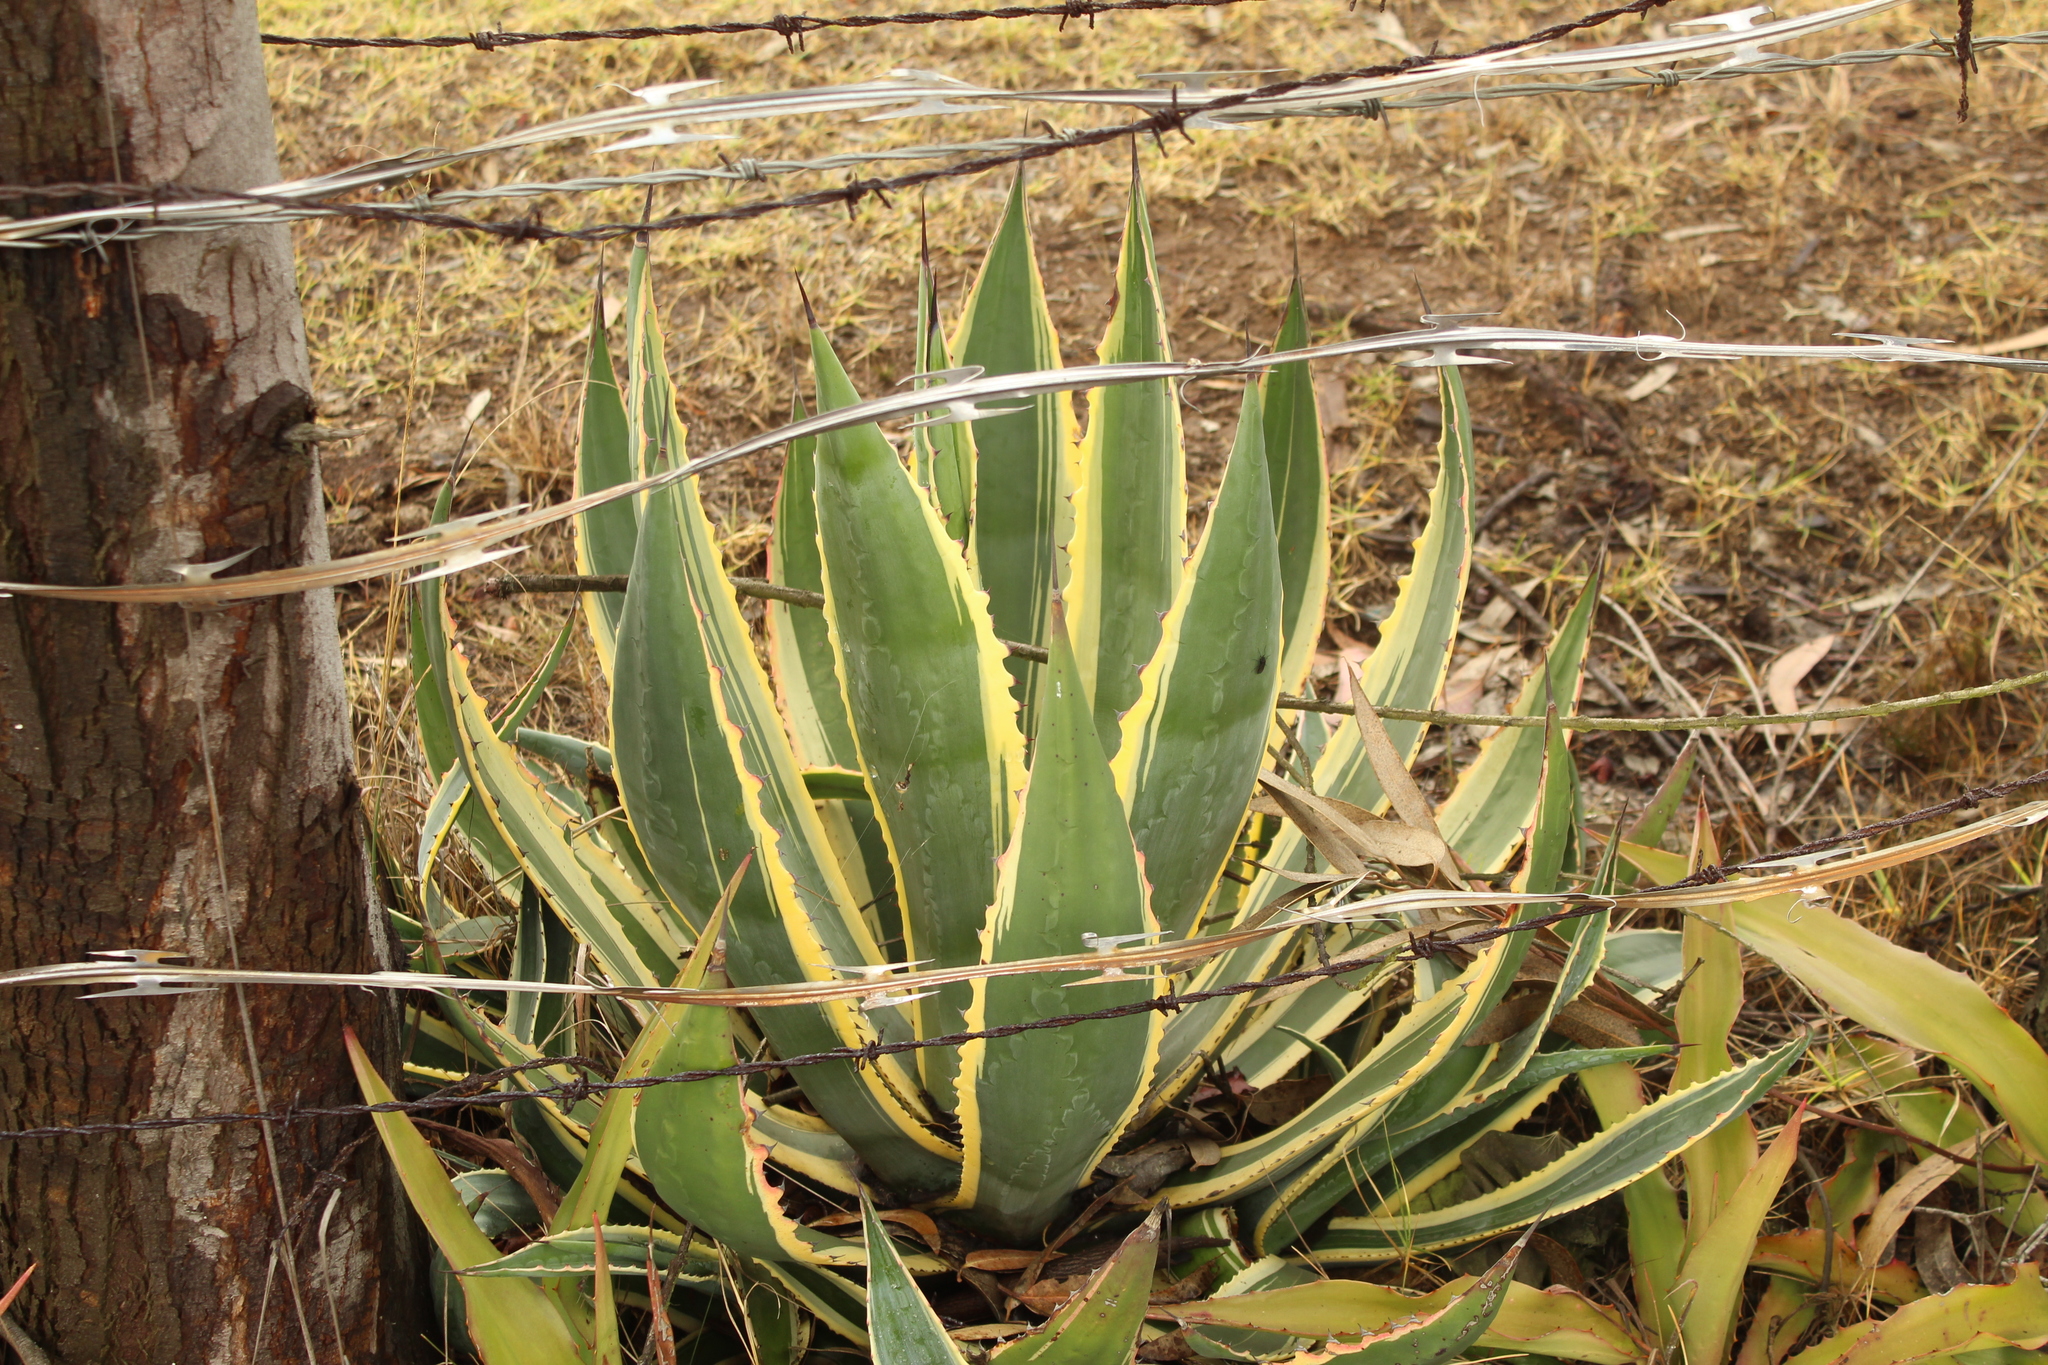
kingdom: Plantae
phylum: Tracheophyta
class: Liliopsida
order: Asparagales
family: Asparagaceae
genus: Agave
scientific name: Agave americana
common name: Centuryplant
